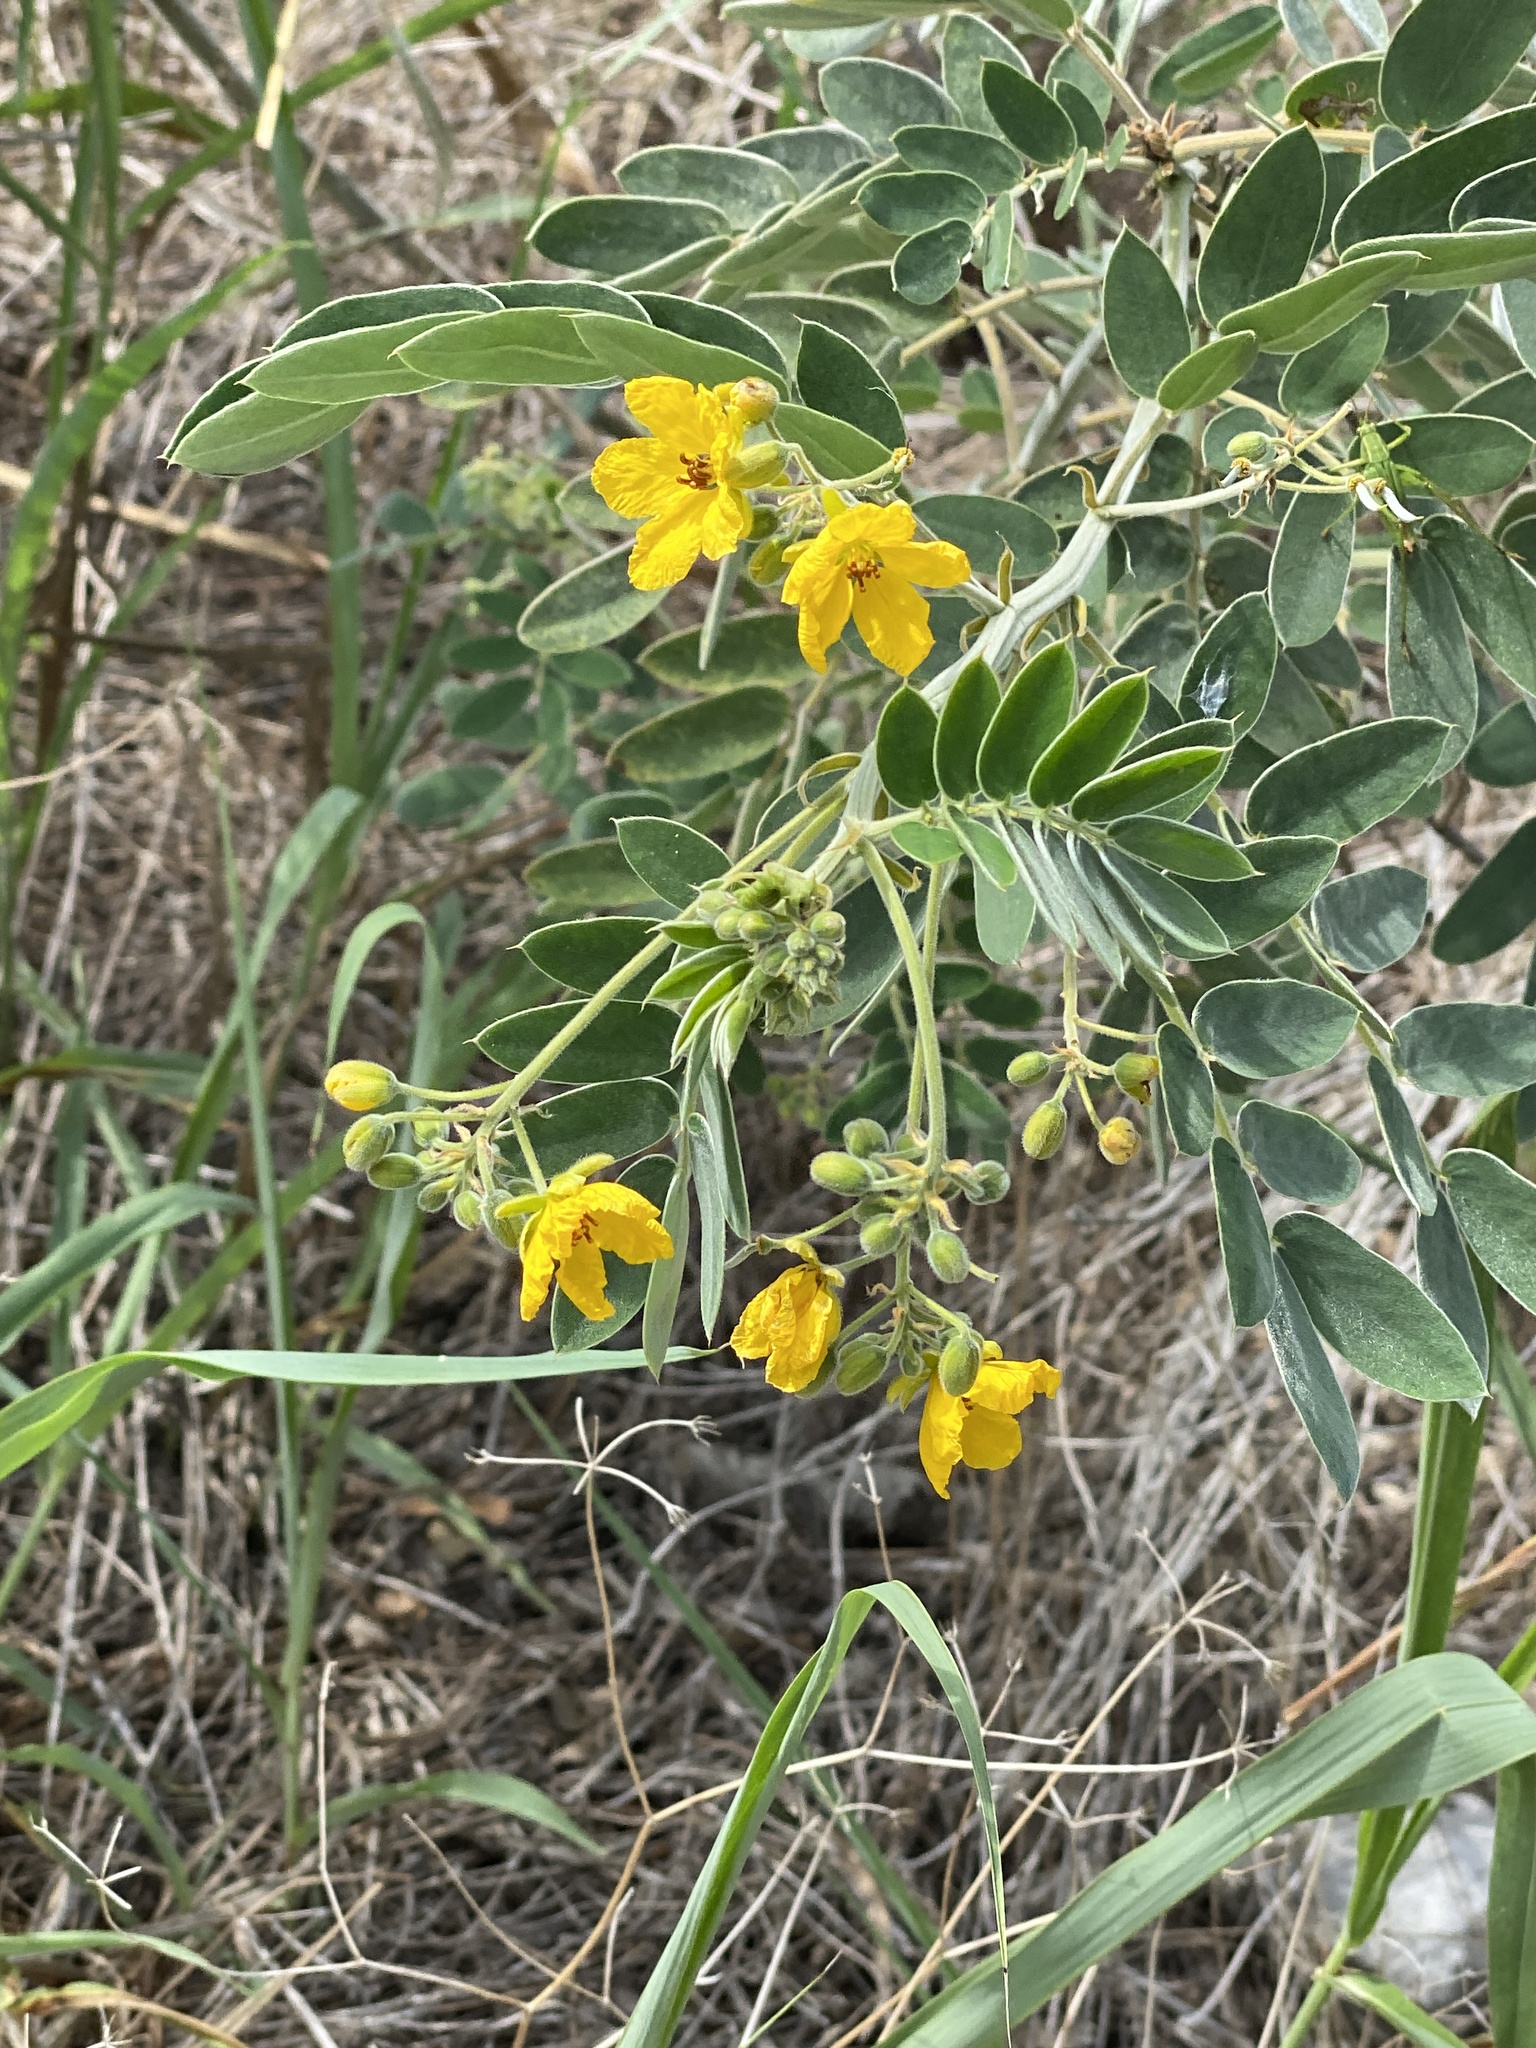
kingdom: Plantae
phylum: Tracheophyta
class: Magnoliopsida
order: Fabales
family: Fabaceae
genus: Senna
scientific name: Senna lindheimeriana
